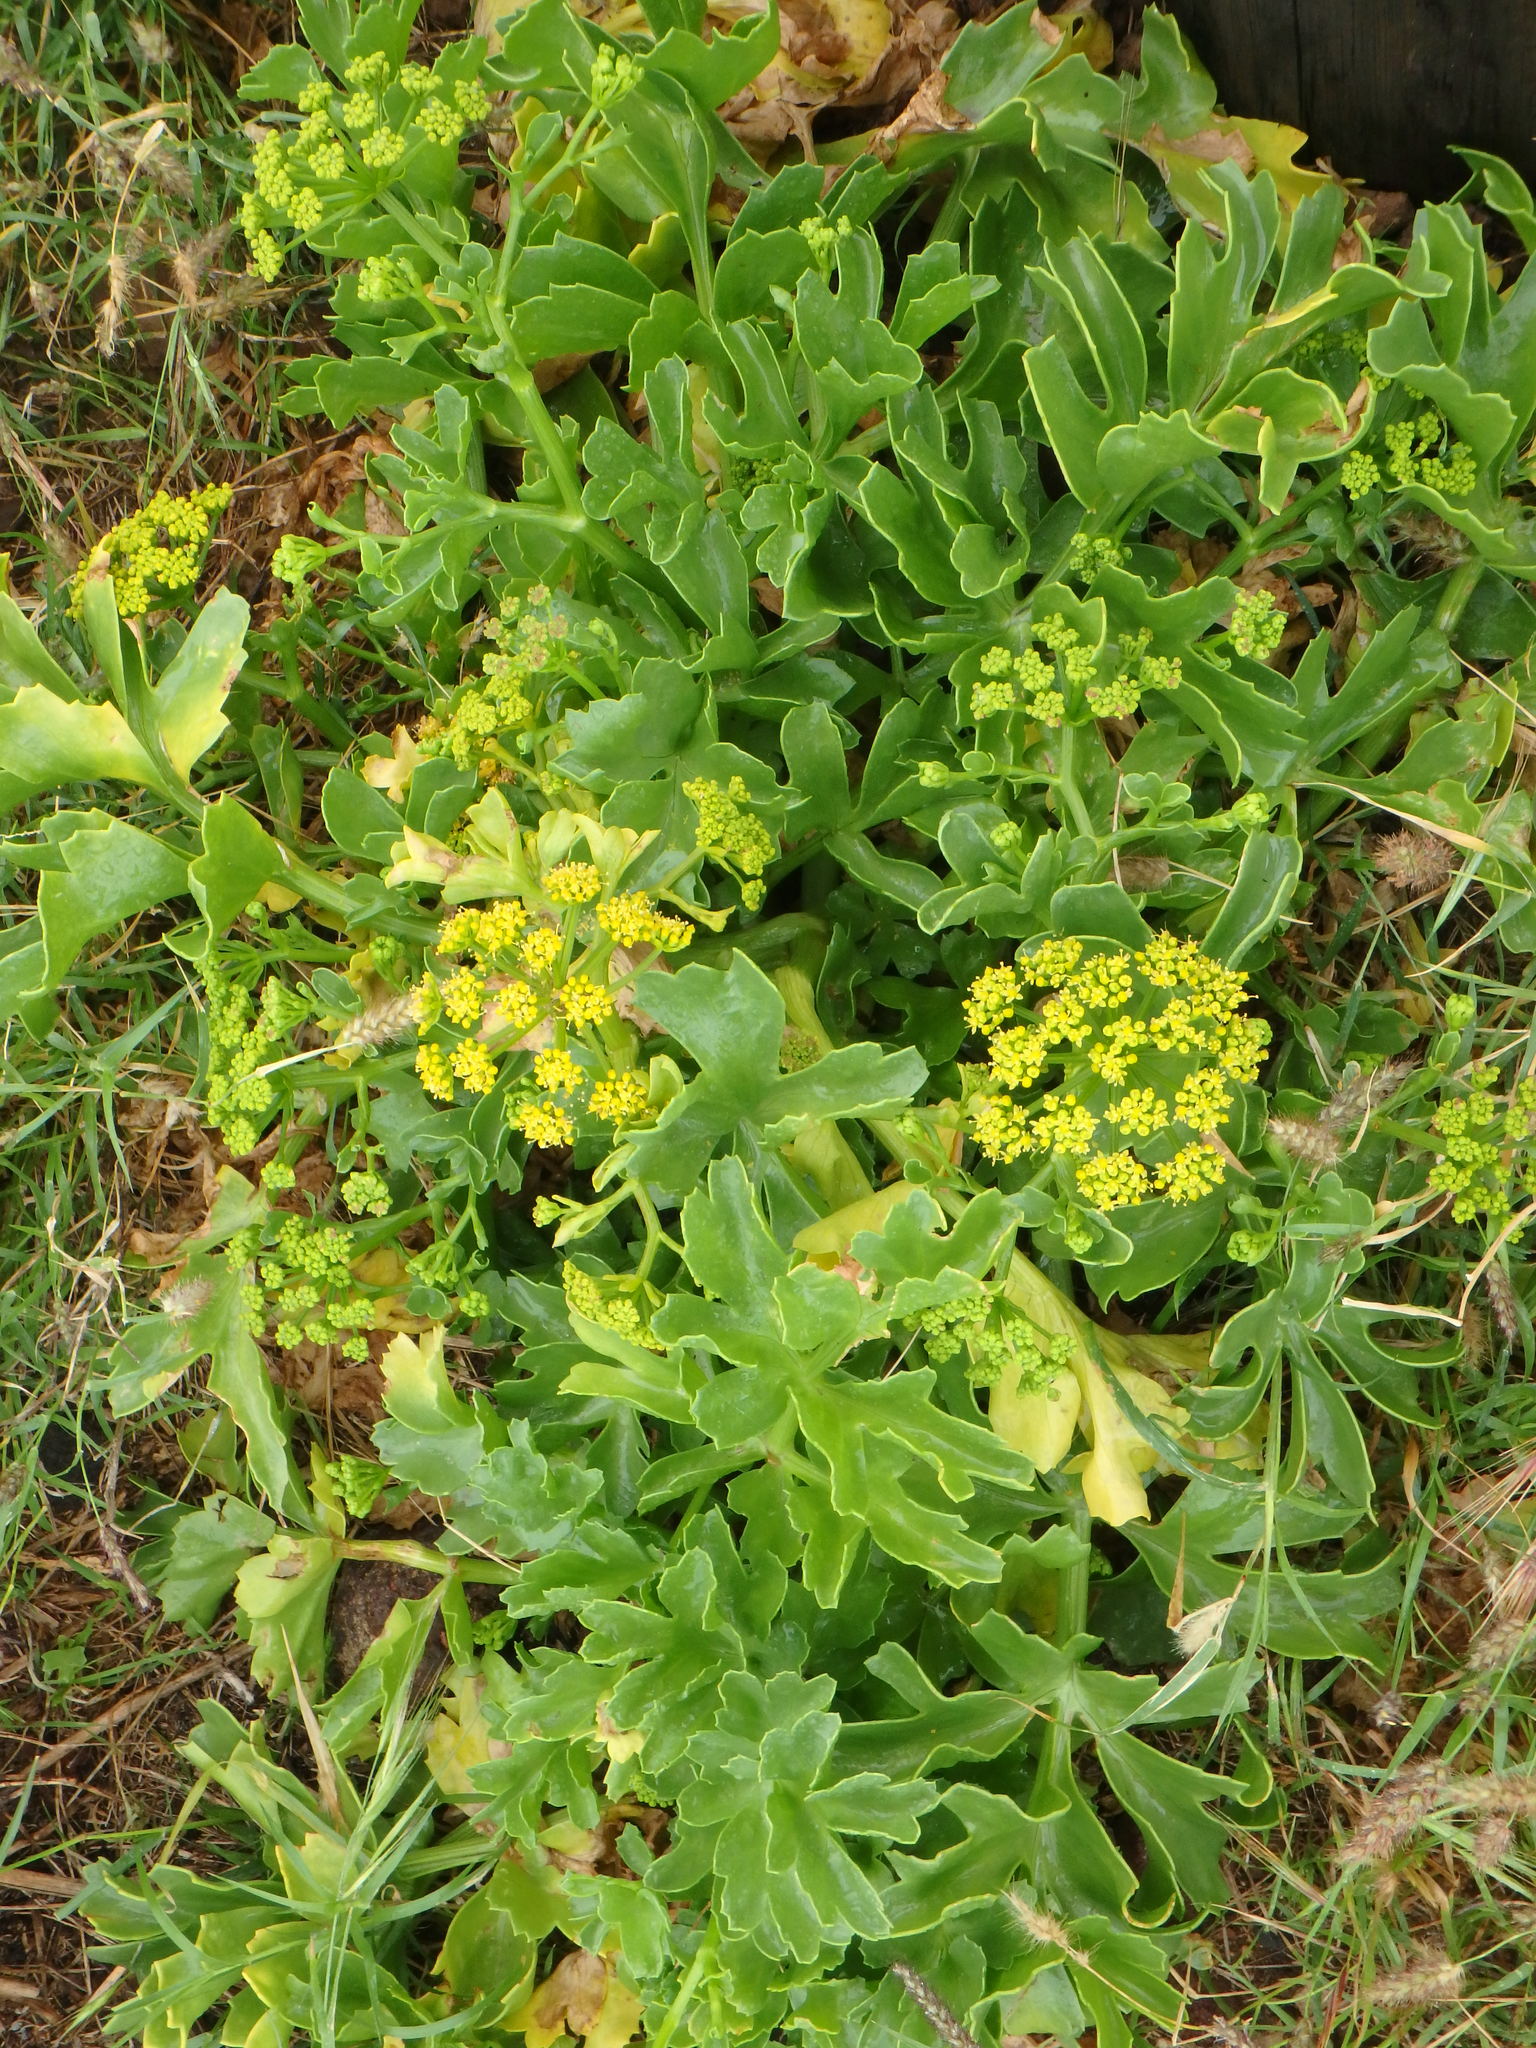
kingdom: Plantae
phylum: Tracheophyta
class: Magnoliopsida
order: Apiales
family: Apiaceae
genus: Astydamia
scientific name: Astydamia latifolia
